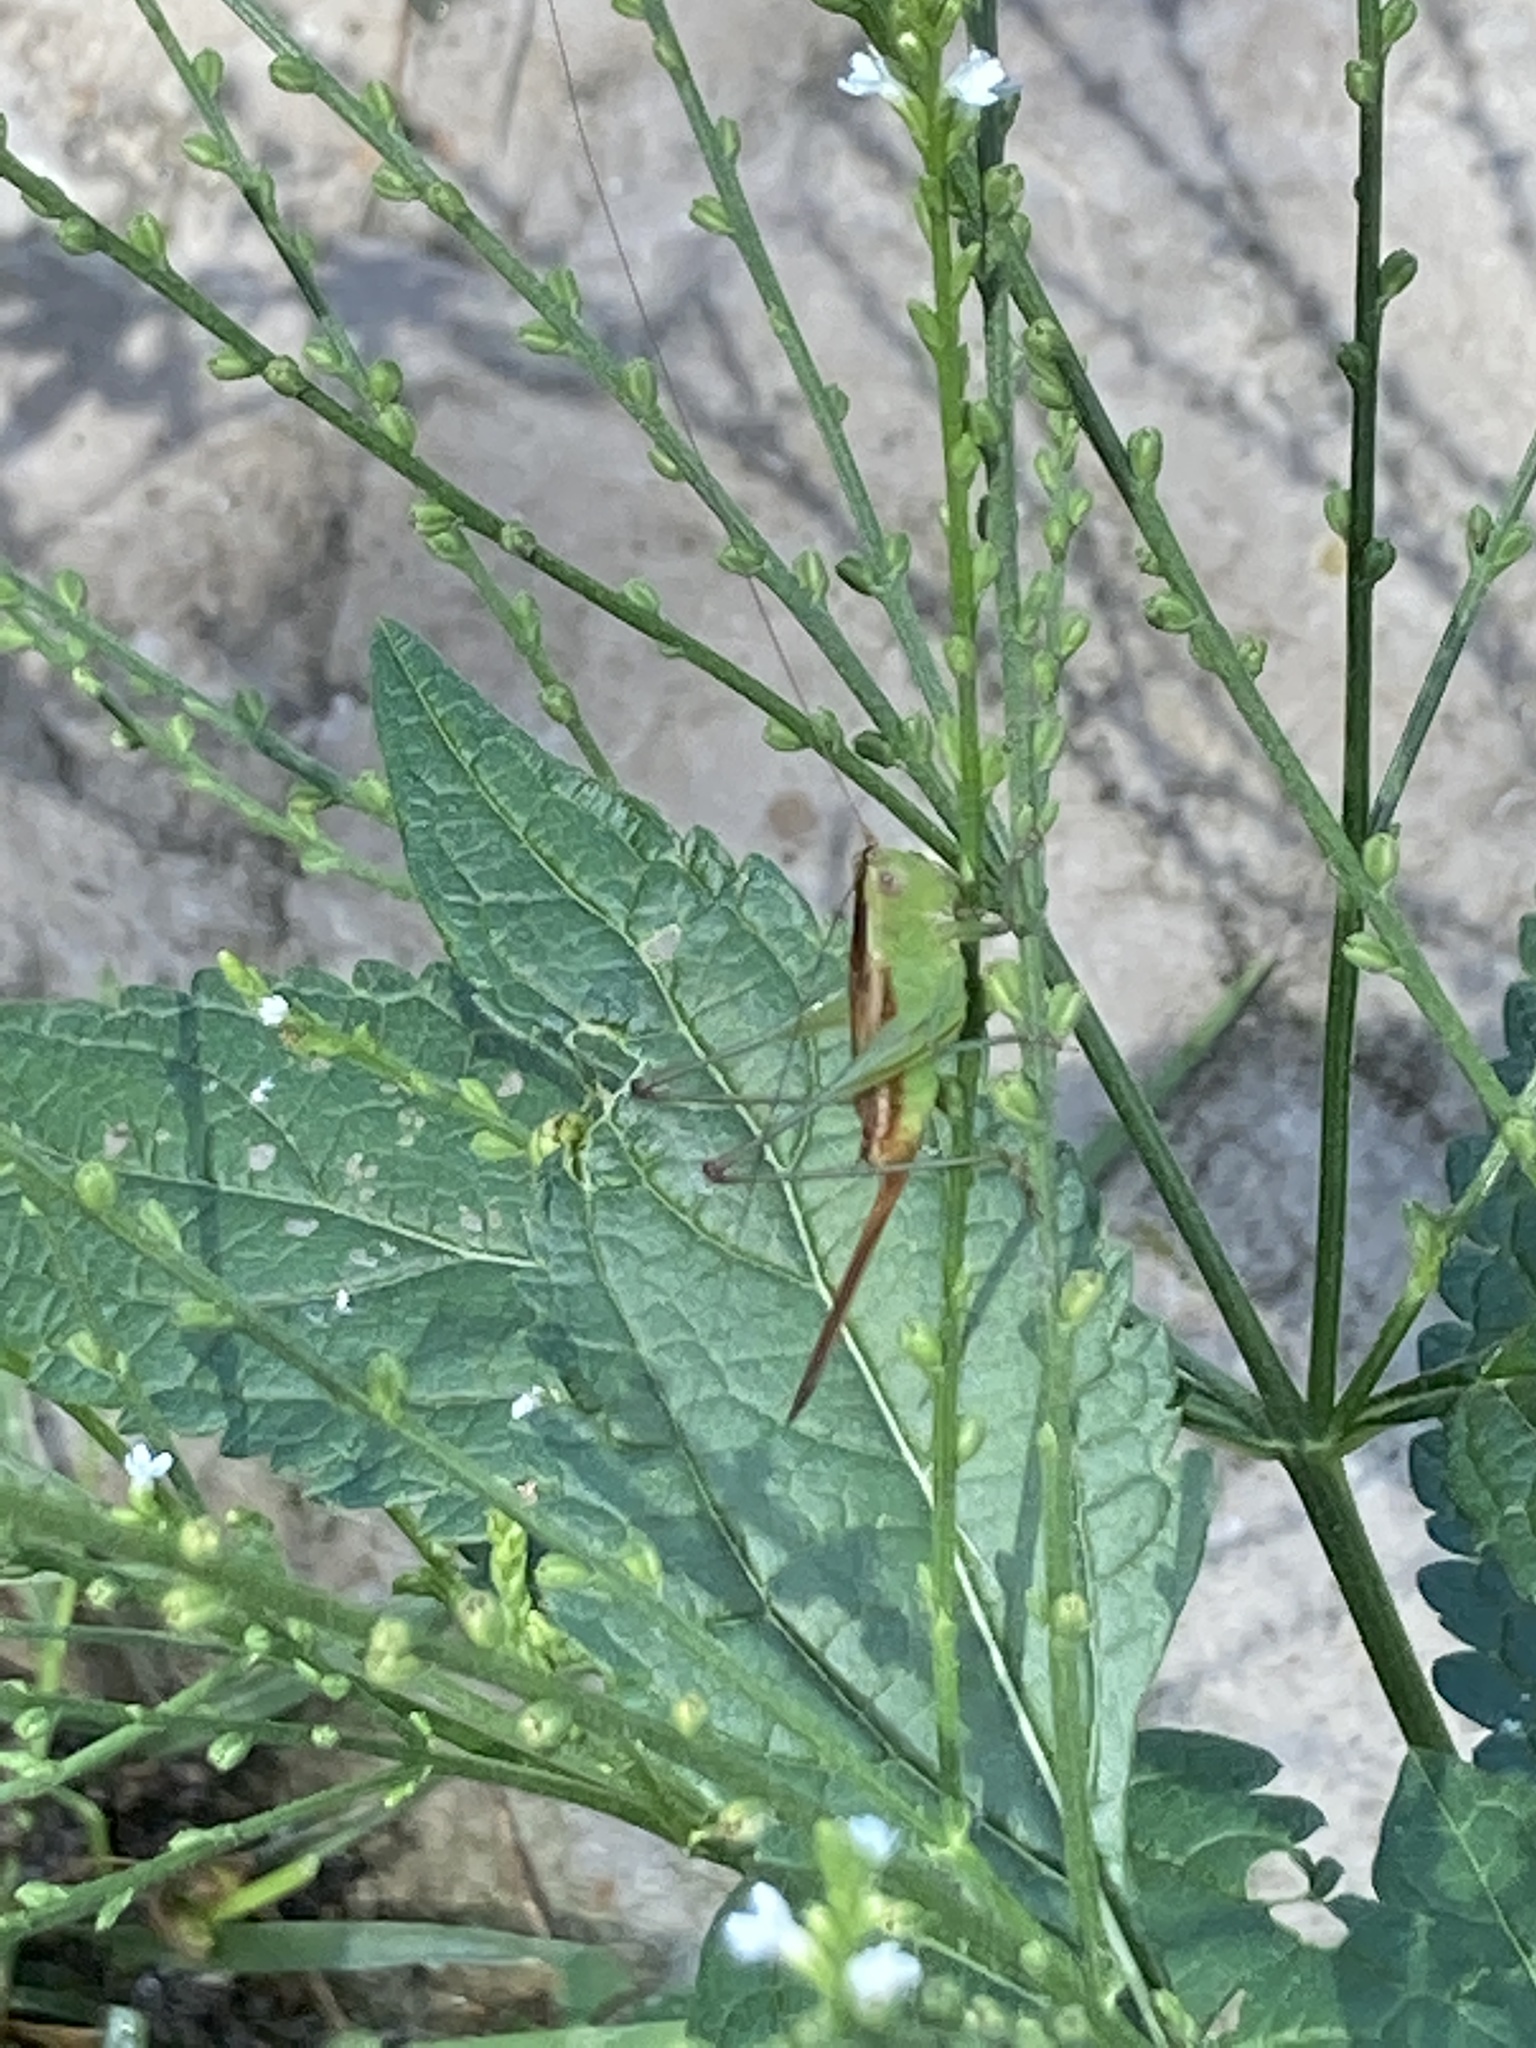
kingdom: Animalia
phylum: Arthropoda
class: Insecta
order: Orthoptera
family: Tettigoniidae
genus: Conocephalus
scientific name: Conocephalus brevipennis
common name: Short-winged meadow katydid
